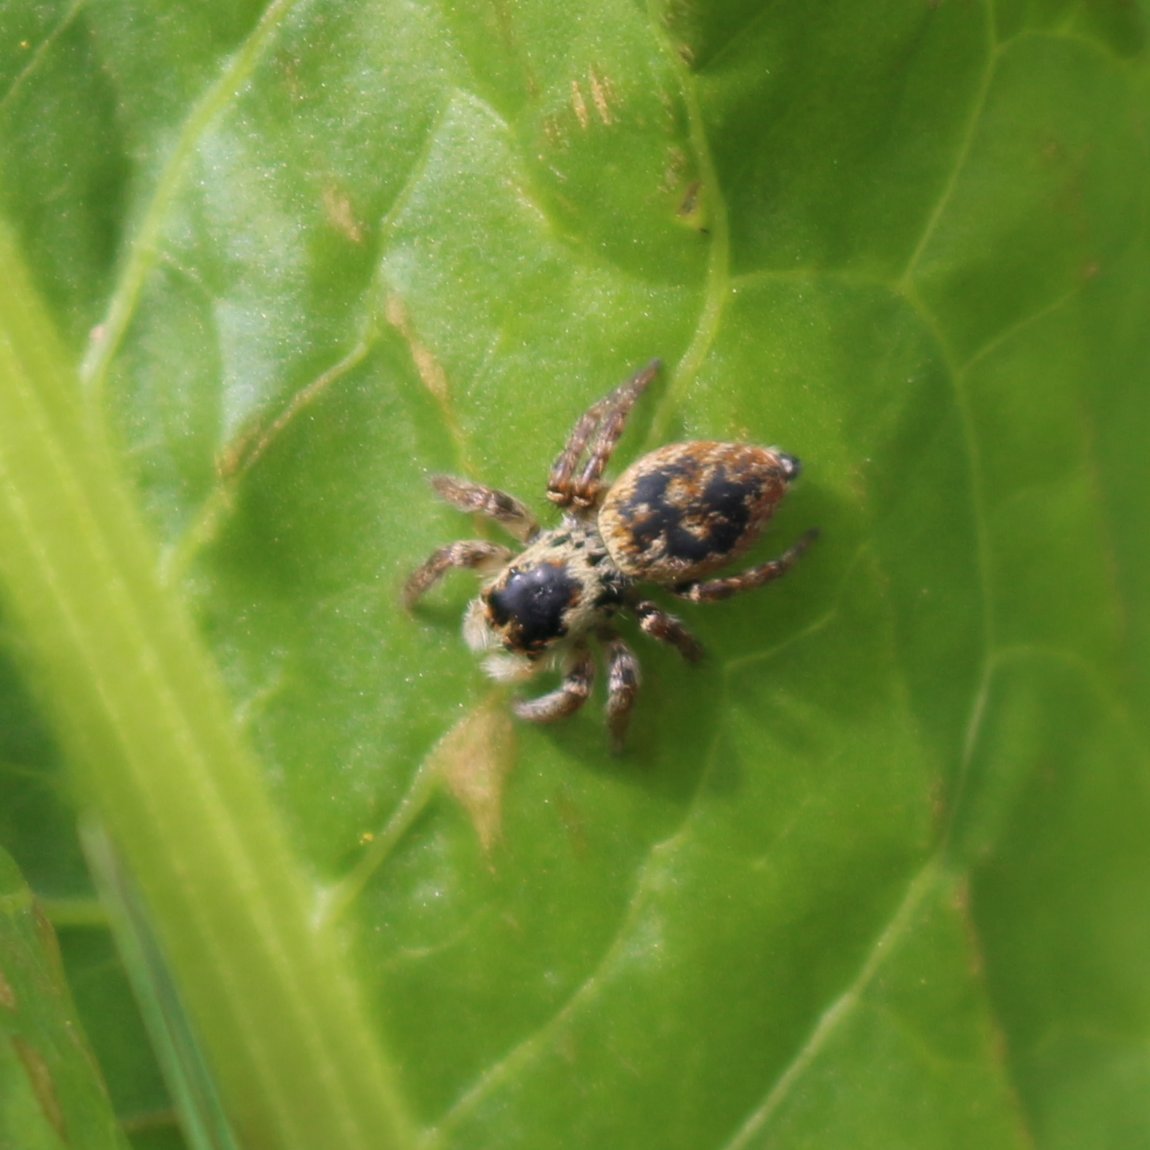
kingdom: Animalia
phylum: Arthropoda
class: Arachnida
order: Araneae
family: Salticidae
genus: Carrhotus
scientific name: Carrhotus xanthogramma
